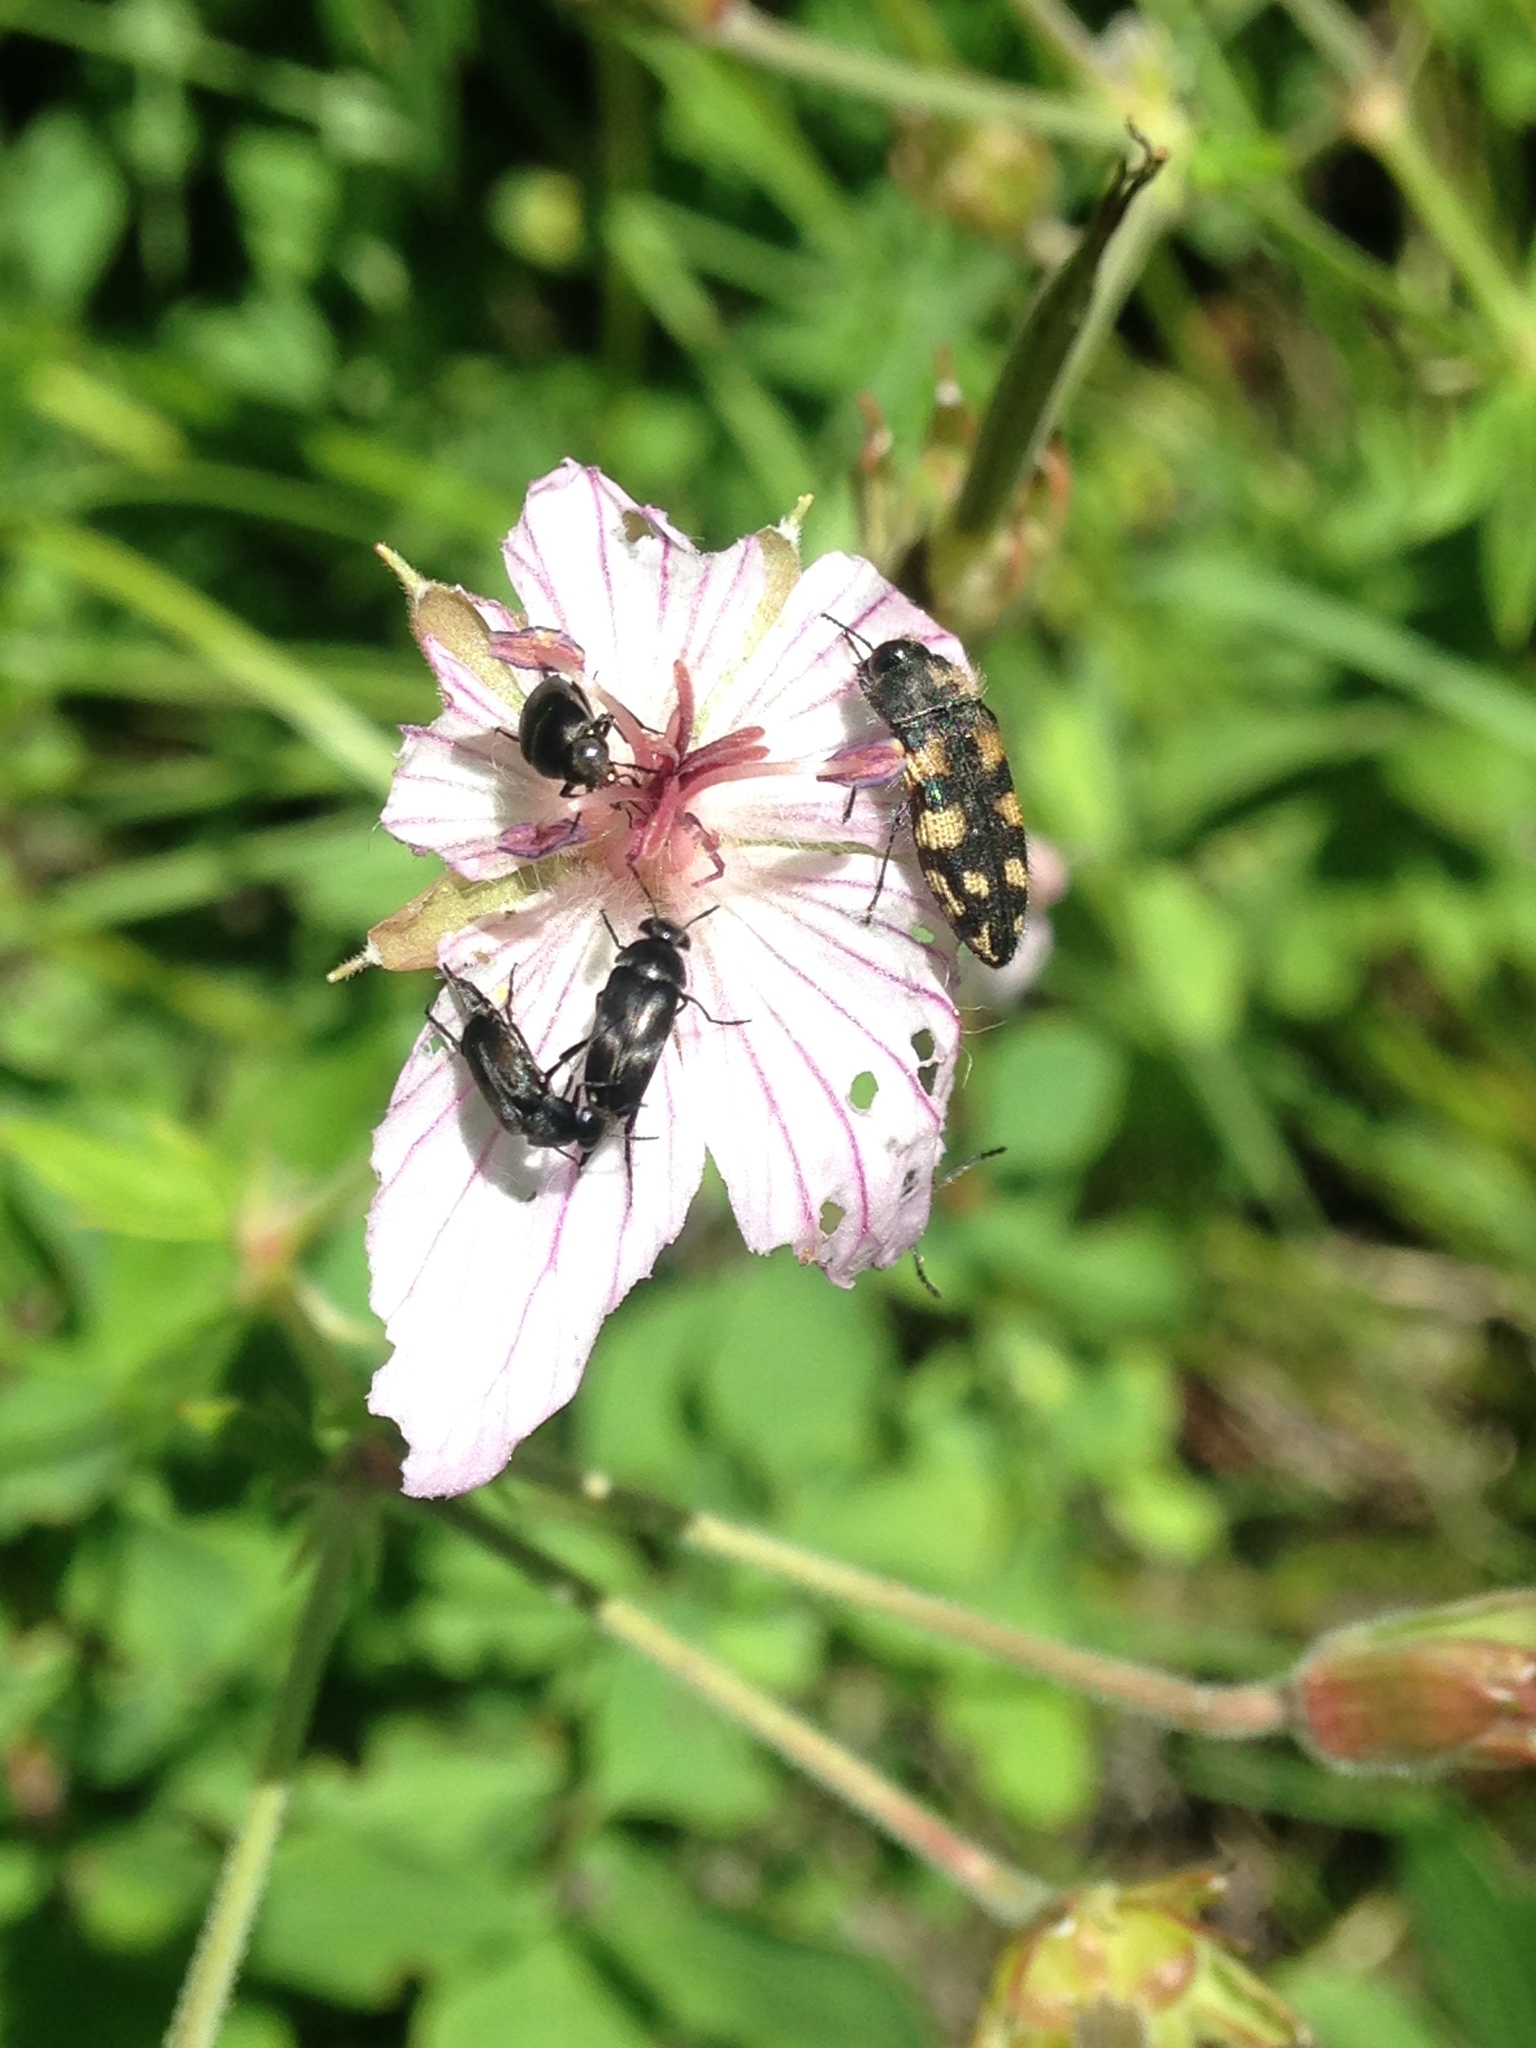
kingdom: Animalia
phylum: Arthropoda
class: Insecta
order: Coleoptera
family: Buprestidae
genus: Acmaeodera
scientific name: Acmaeodera diffusa
